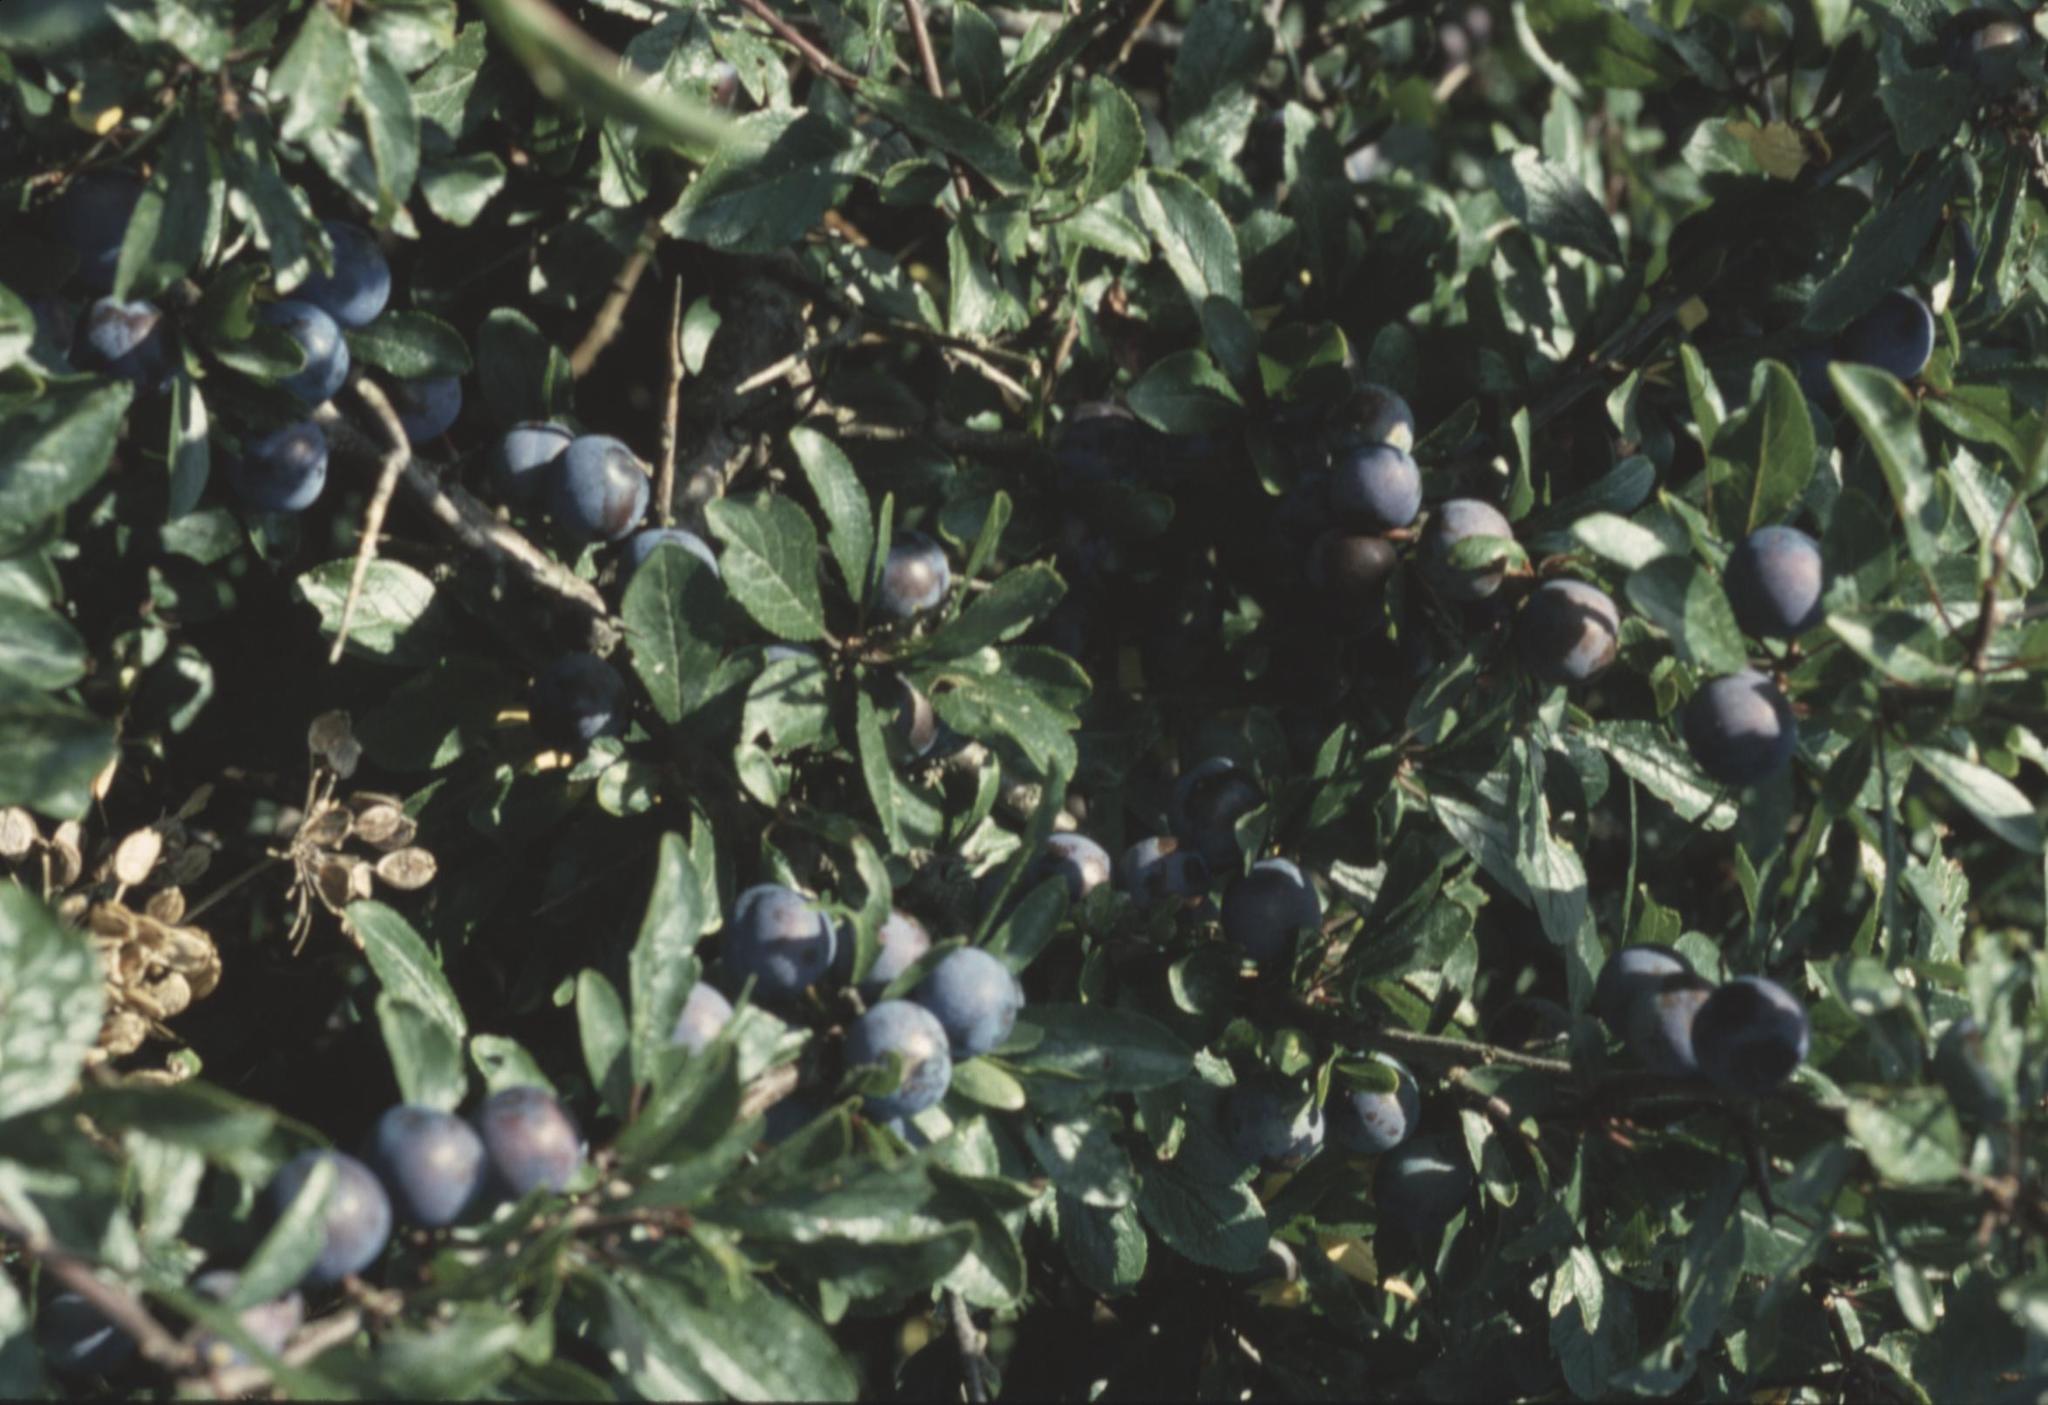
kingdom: Plantae
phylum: Tracheophyta
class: Magnoliopsida
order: Rosales
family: Rosaceae
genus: Prunus
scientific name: Prunus spinosa
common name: Blackthorn
